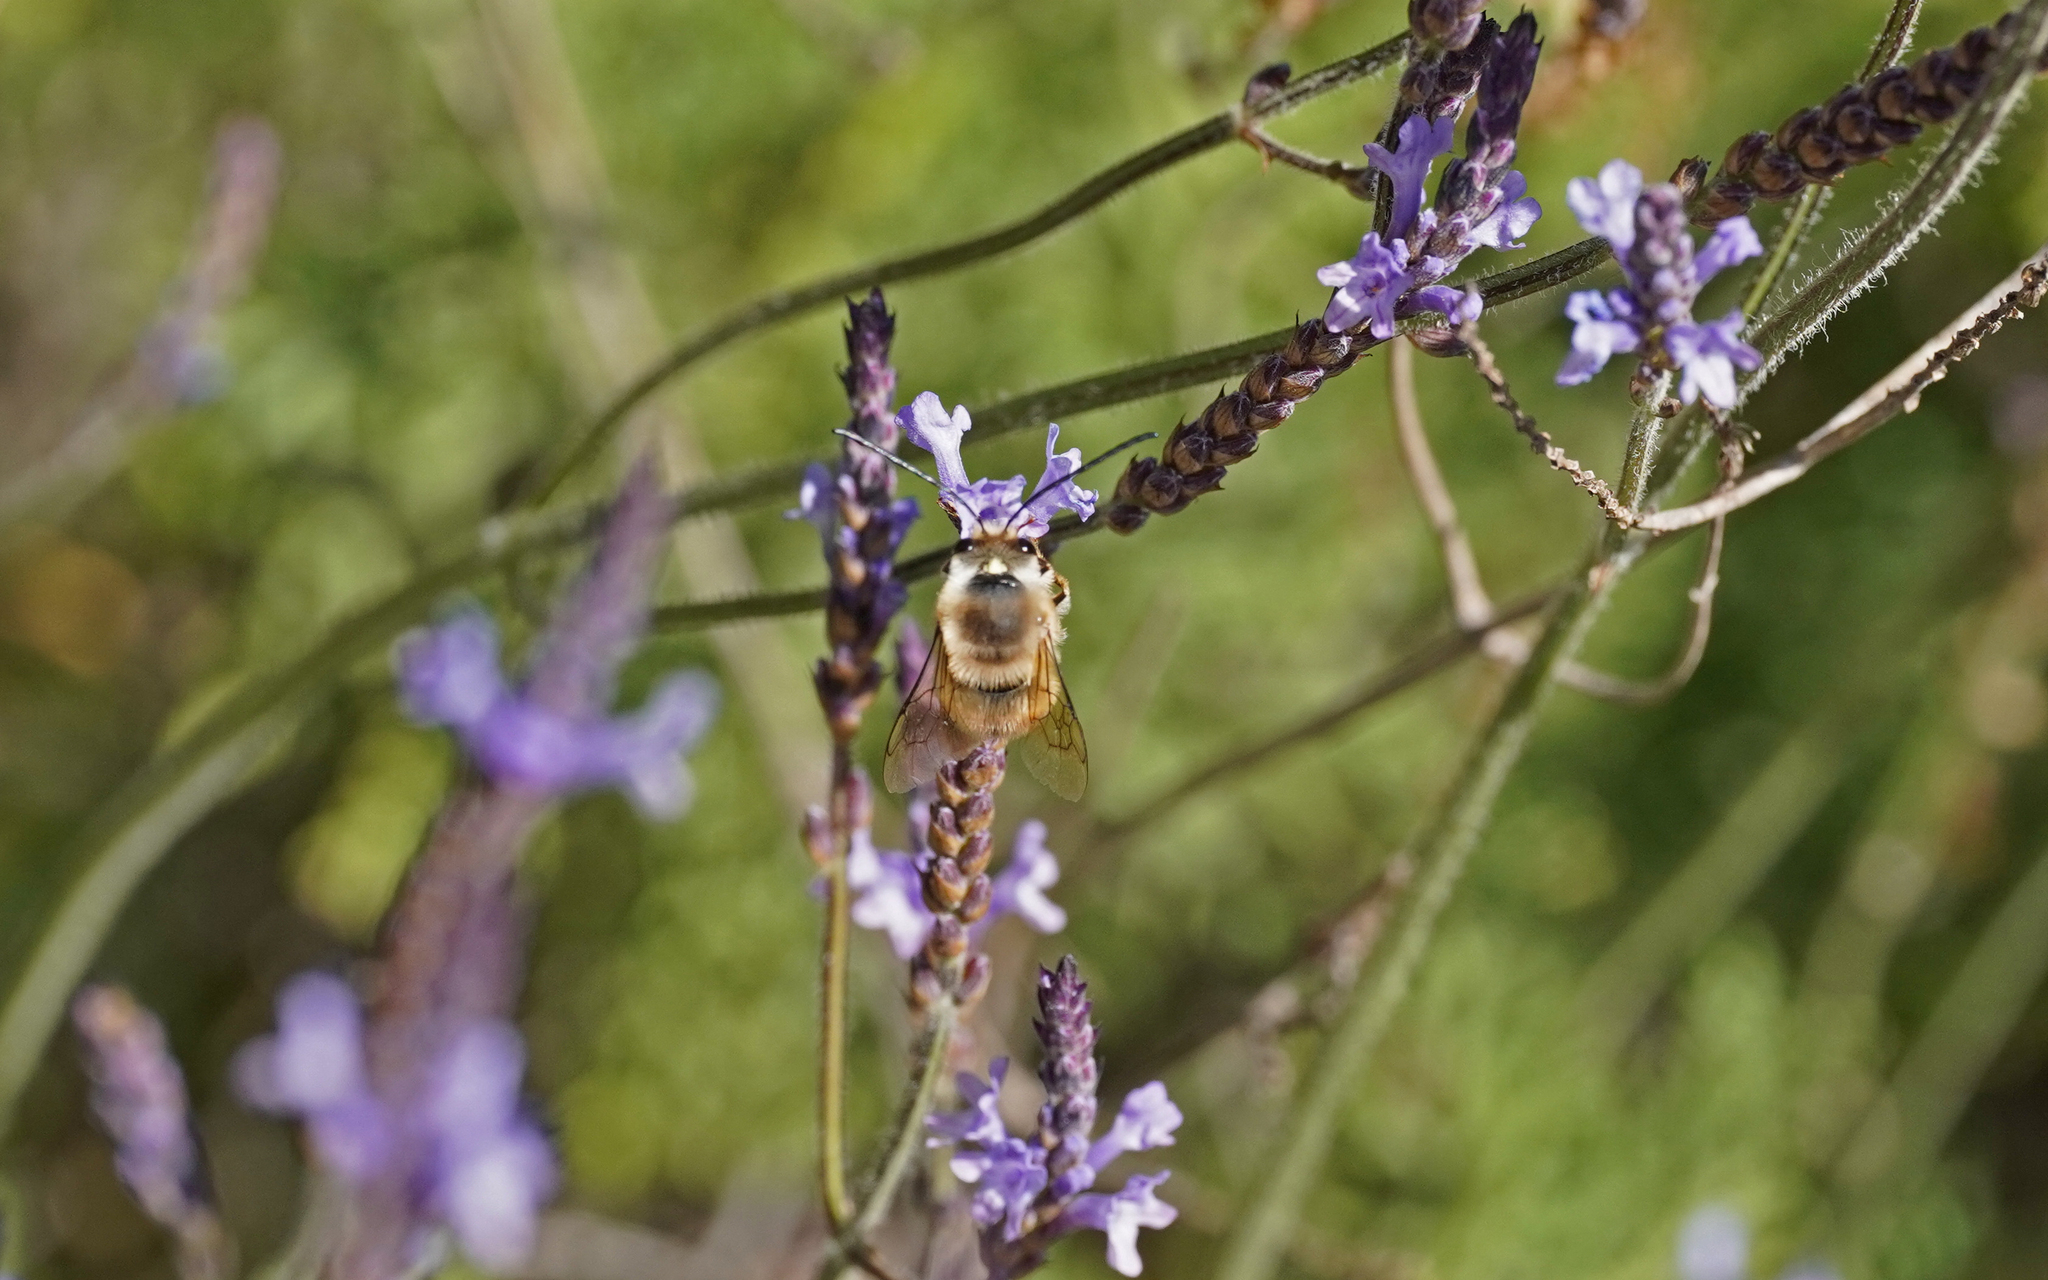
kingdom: Animalia
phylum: Arthropoda
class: Insecta
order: Hymenoptera
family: Apidae
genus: Eucera
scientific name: Eucera gracilipes
